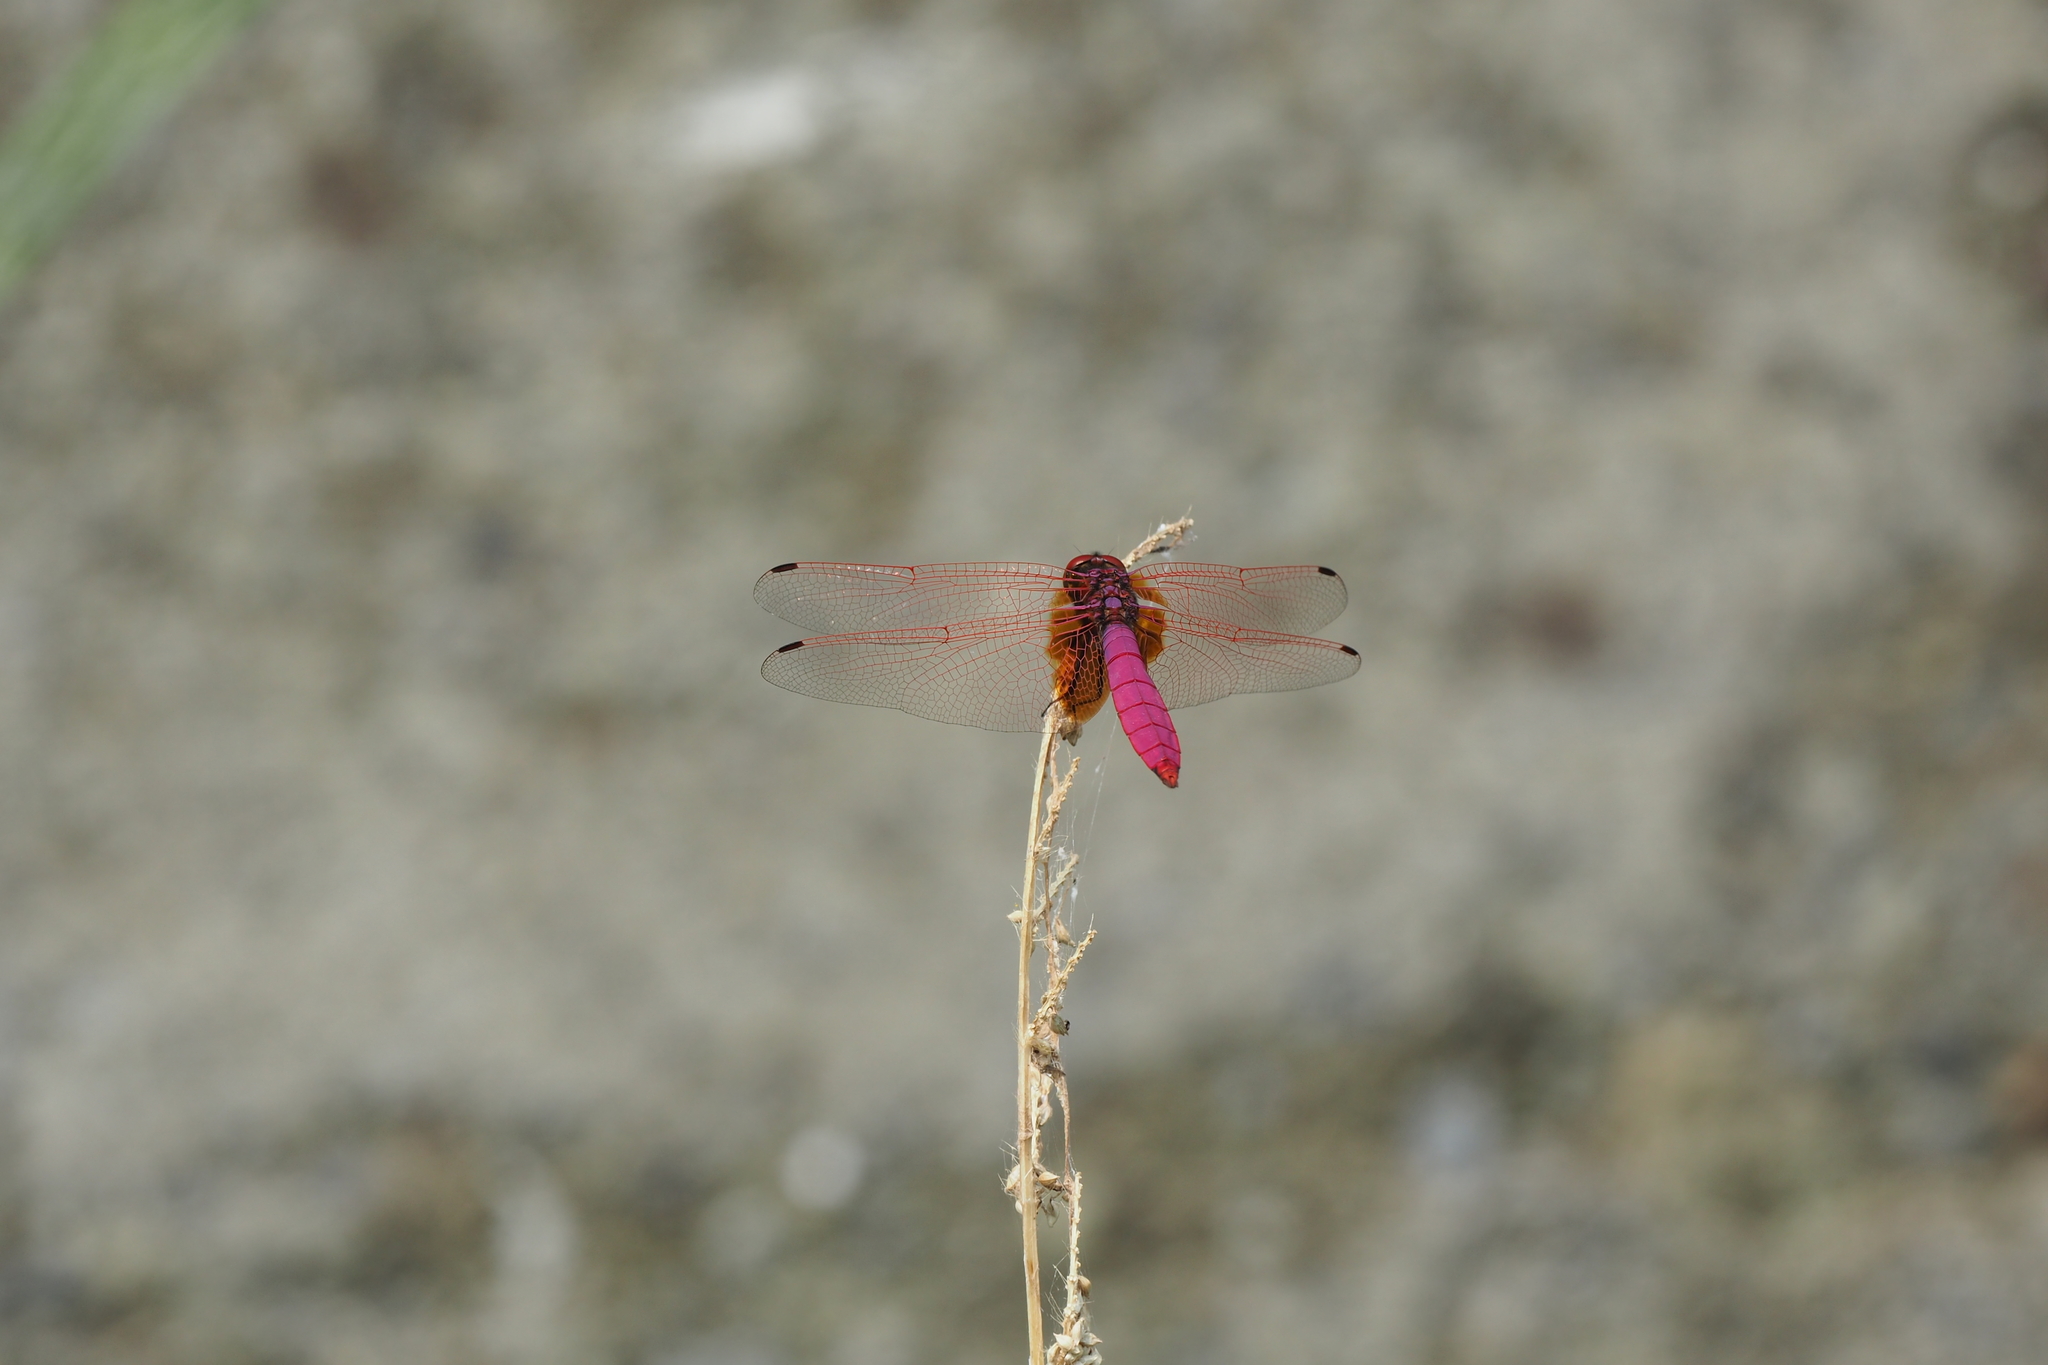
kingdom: Animalia
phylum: Arthropoda
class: Insecta
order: Odonata
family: Libellulidae
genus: Trithemis
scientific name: Trithemis aurora
